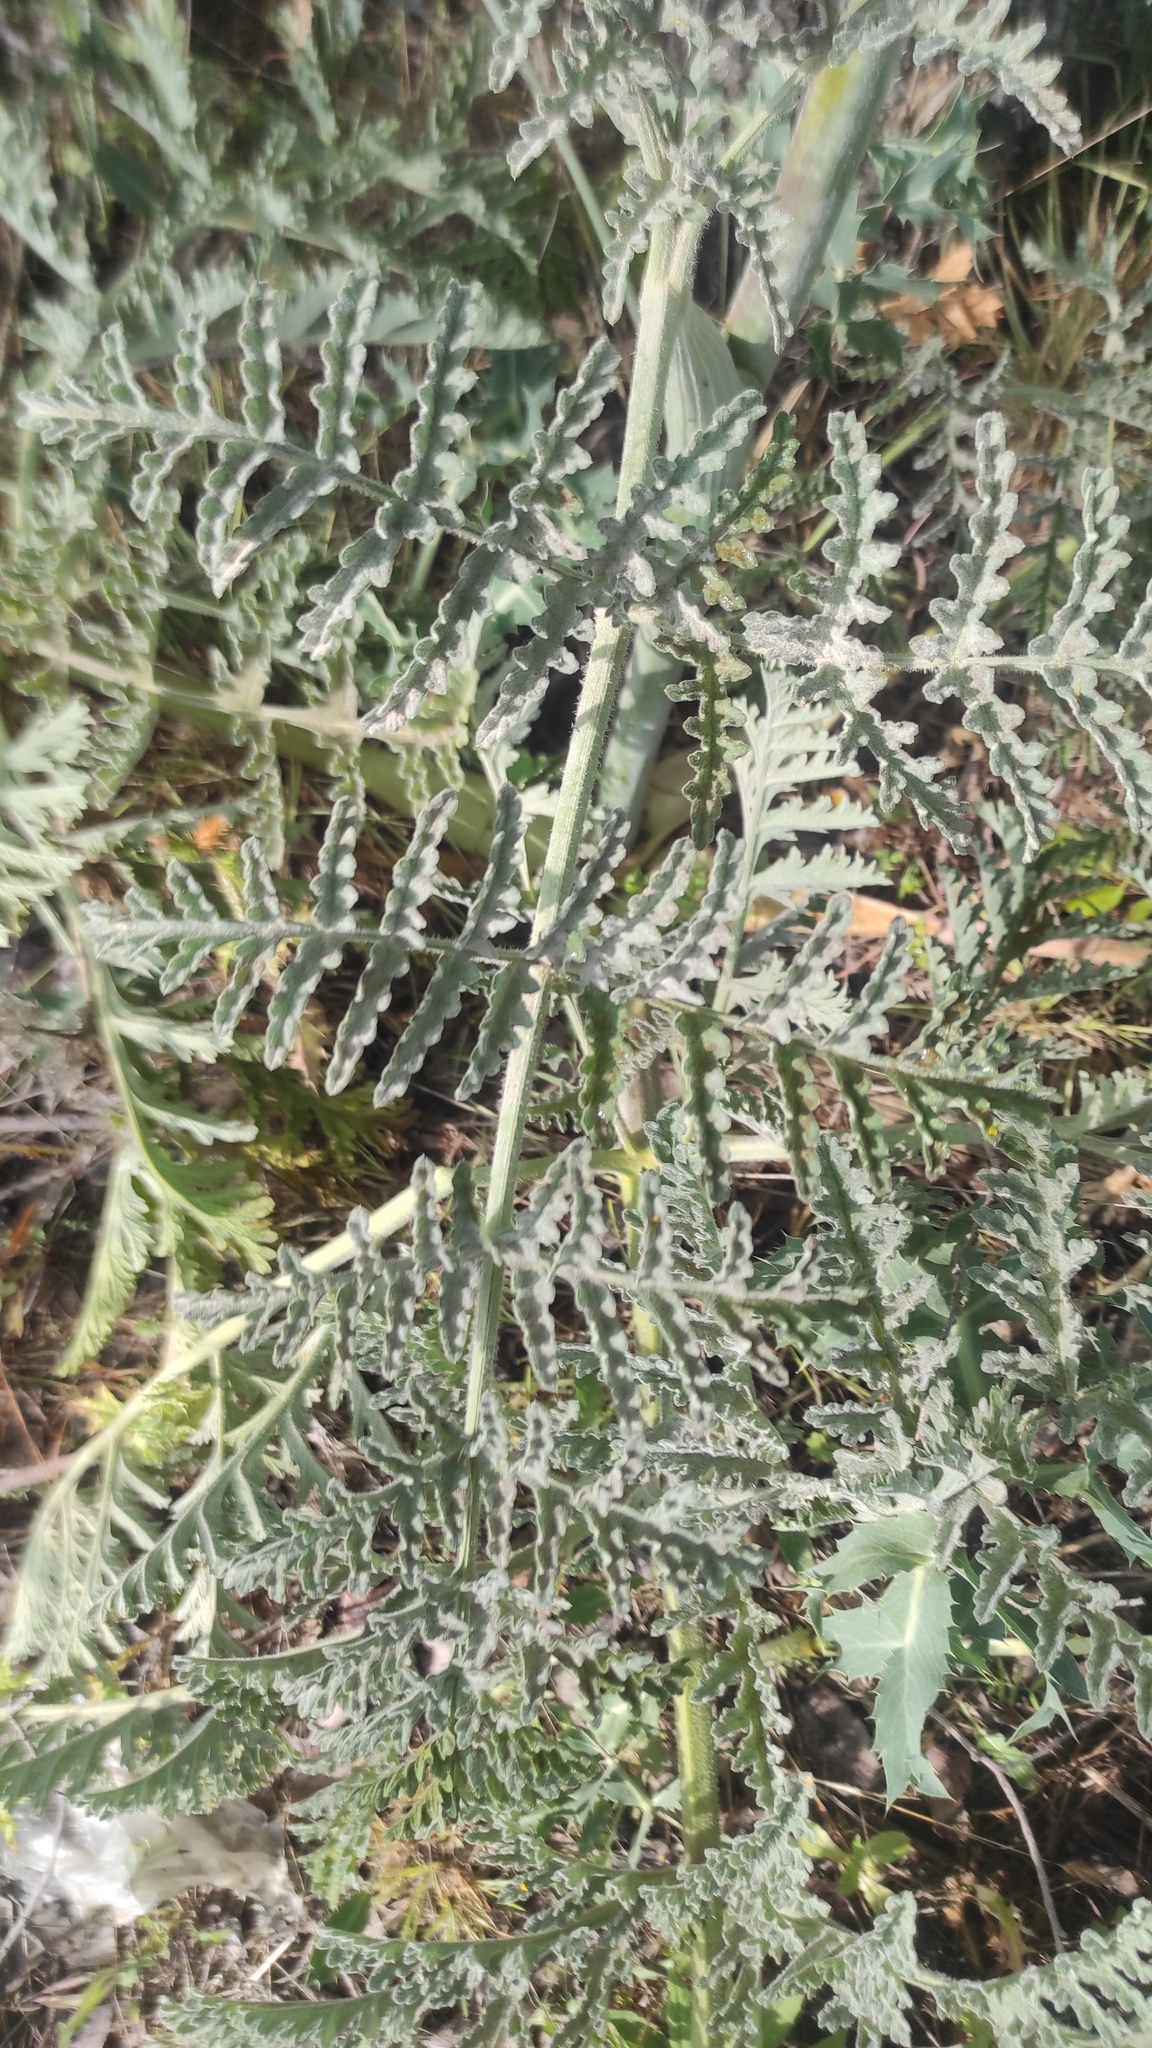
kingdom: Plantae
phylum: Tracheophyta
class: Magnoliopsida
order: Apiales
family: Apiaceae
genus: Thapsia
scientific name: Thapsia villosa
